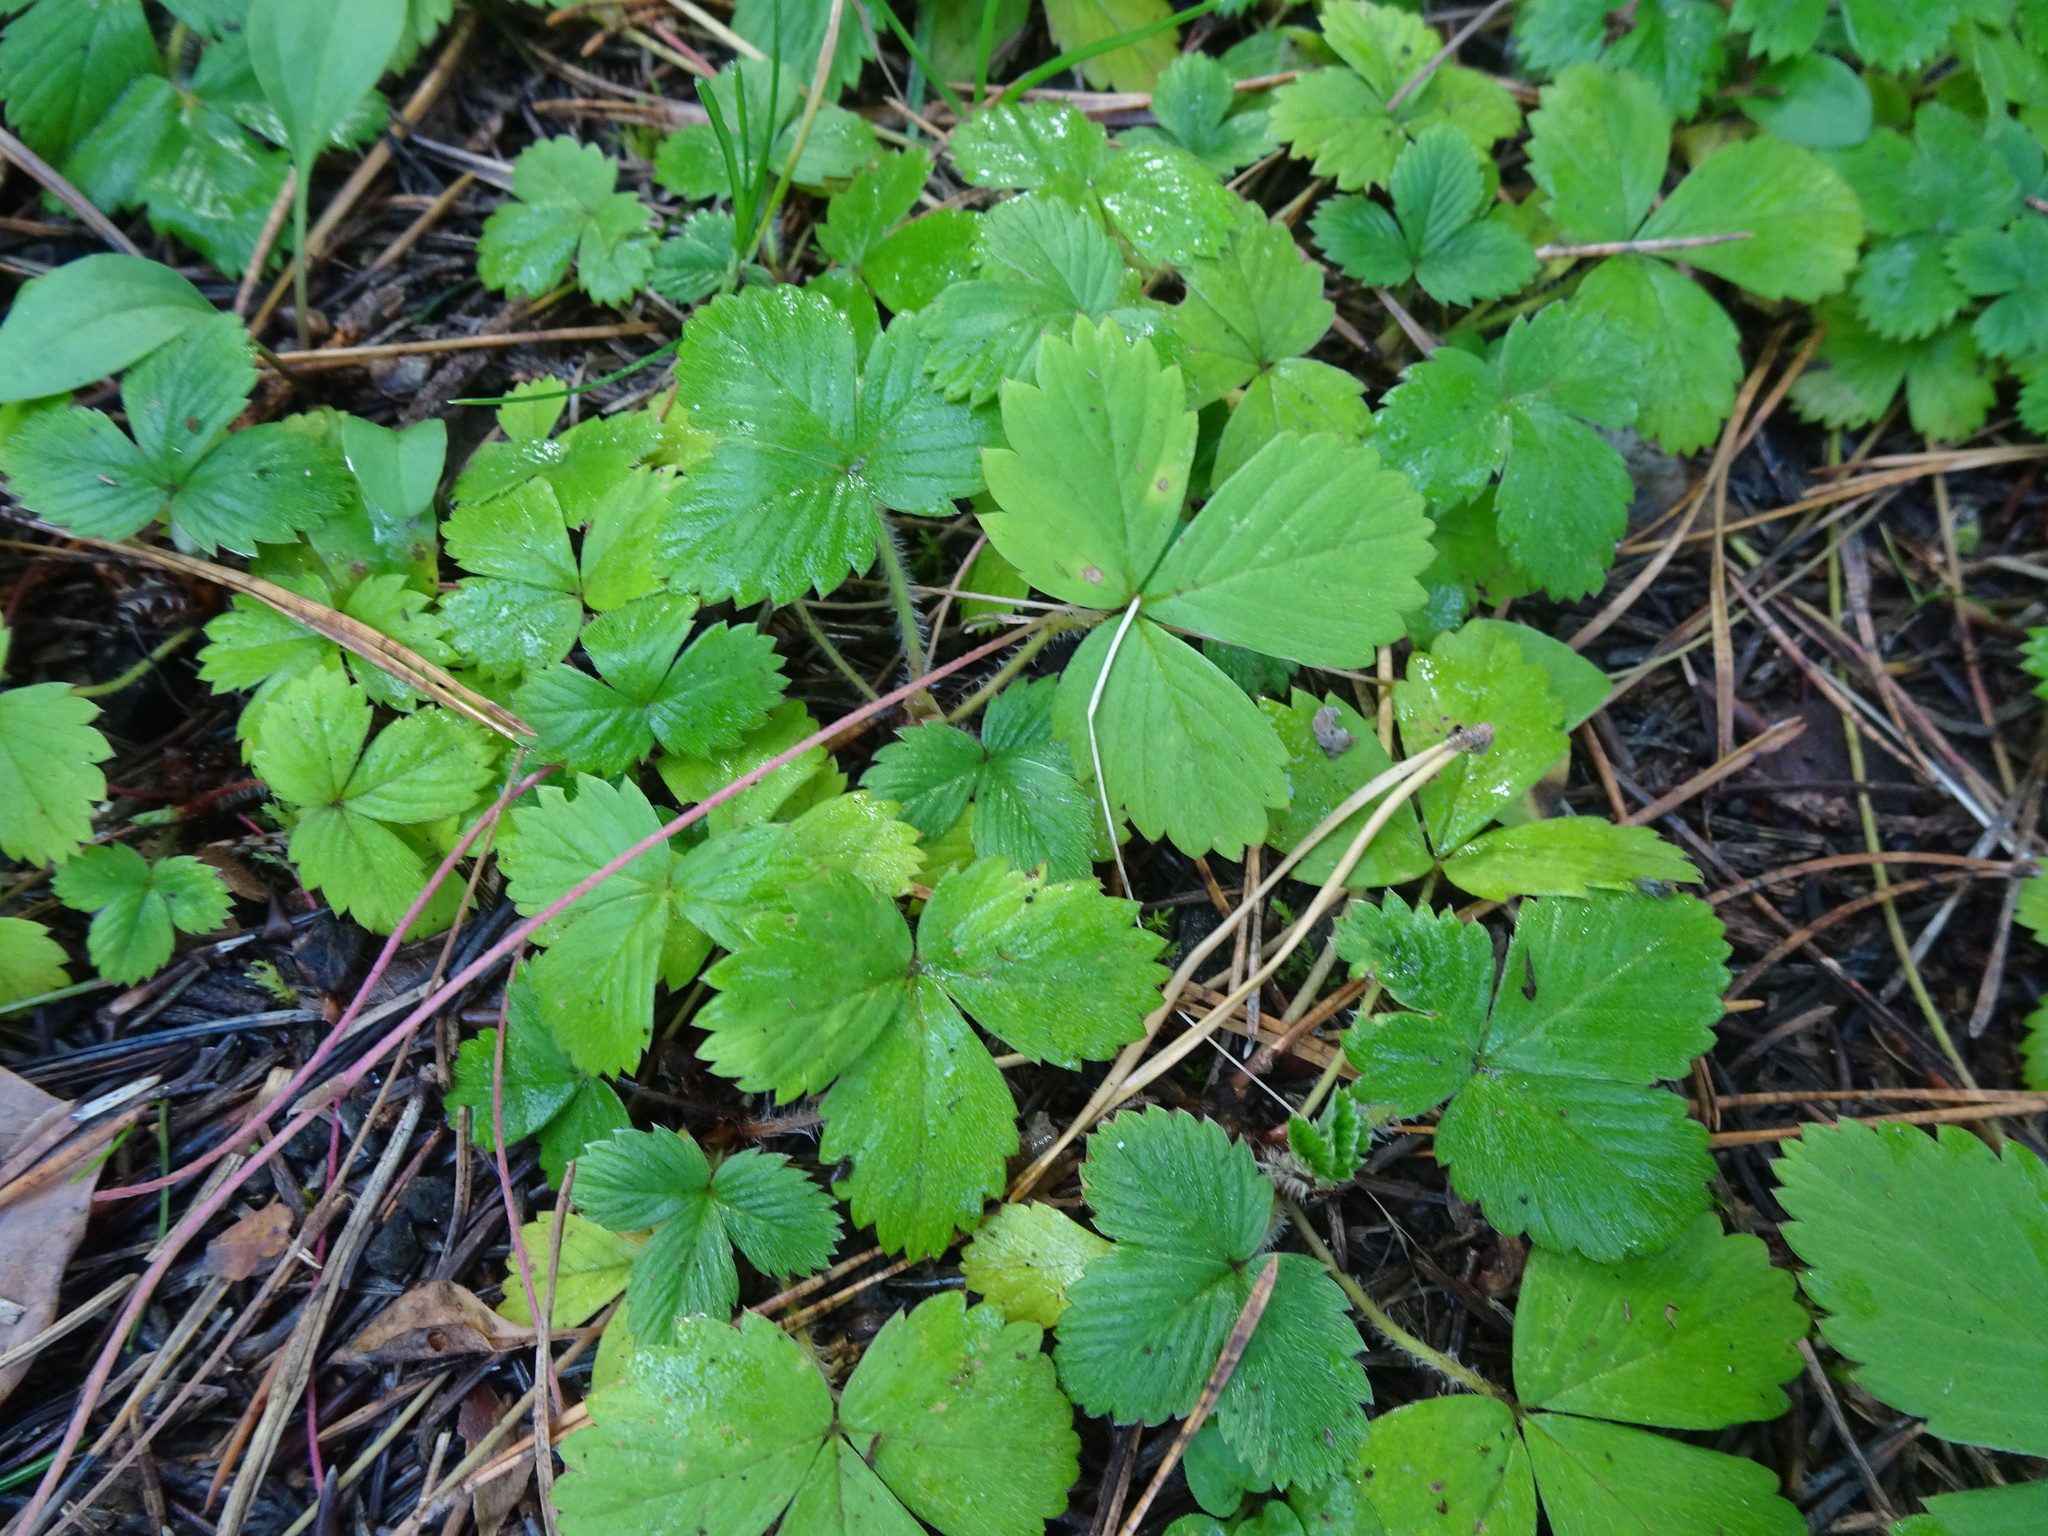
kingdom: Plantae
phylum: Tracheophyta
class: Magnoliopsida
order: Rosales
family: Rosaceae
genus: Fragaria
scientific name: Fragaria vesca
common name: Wild strawberry
